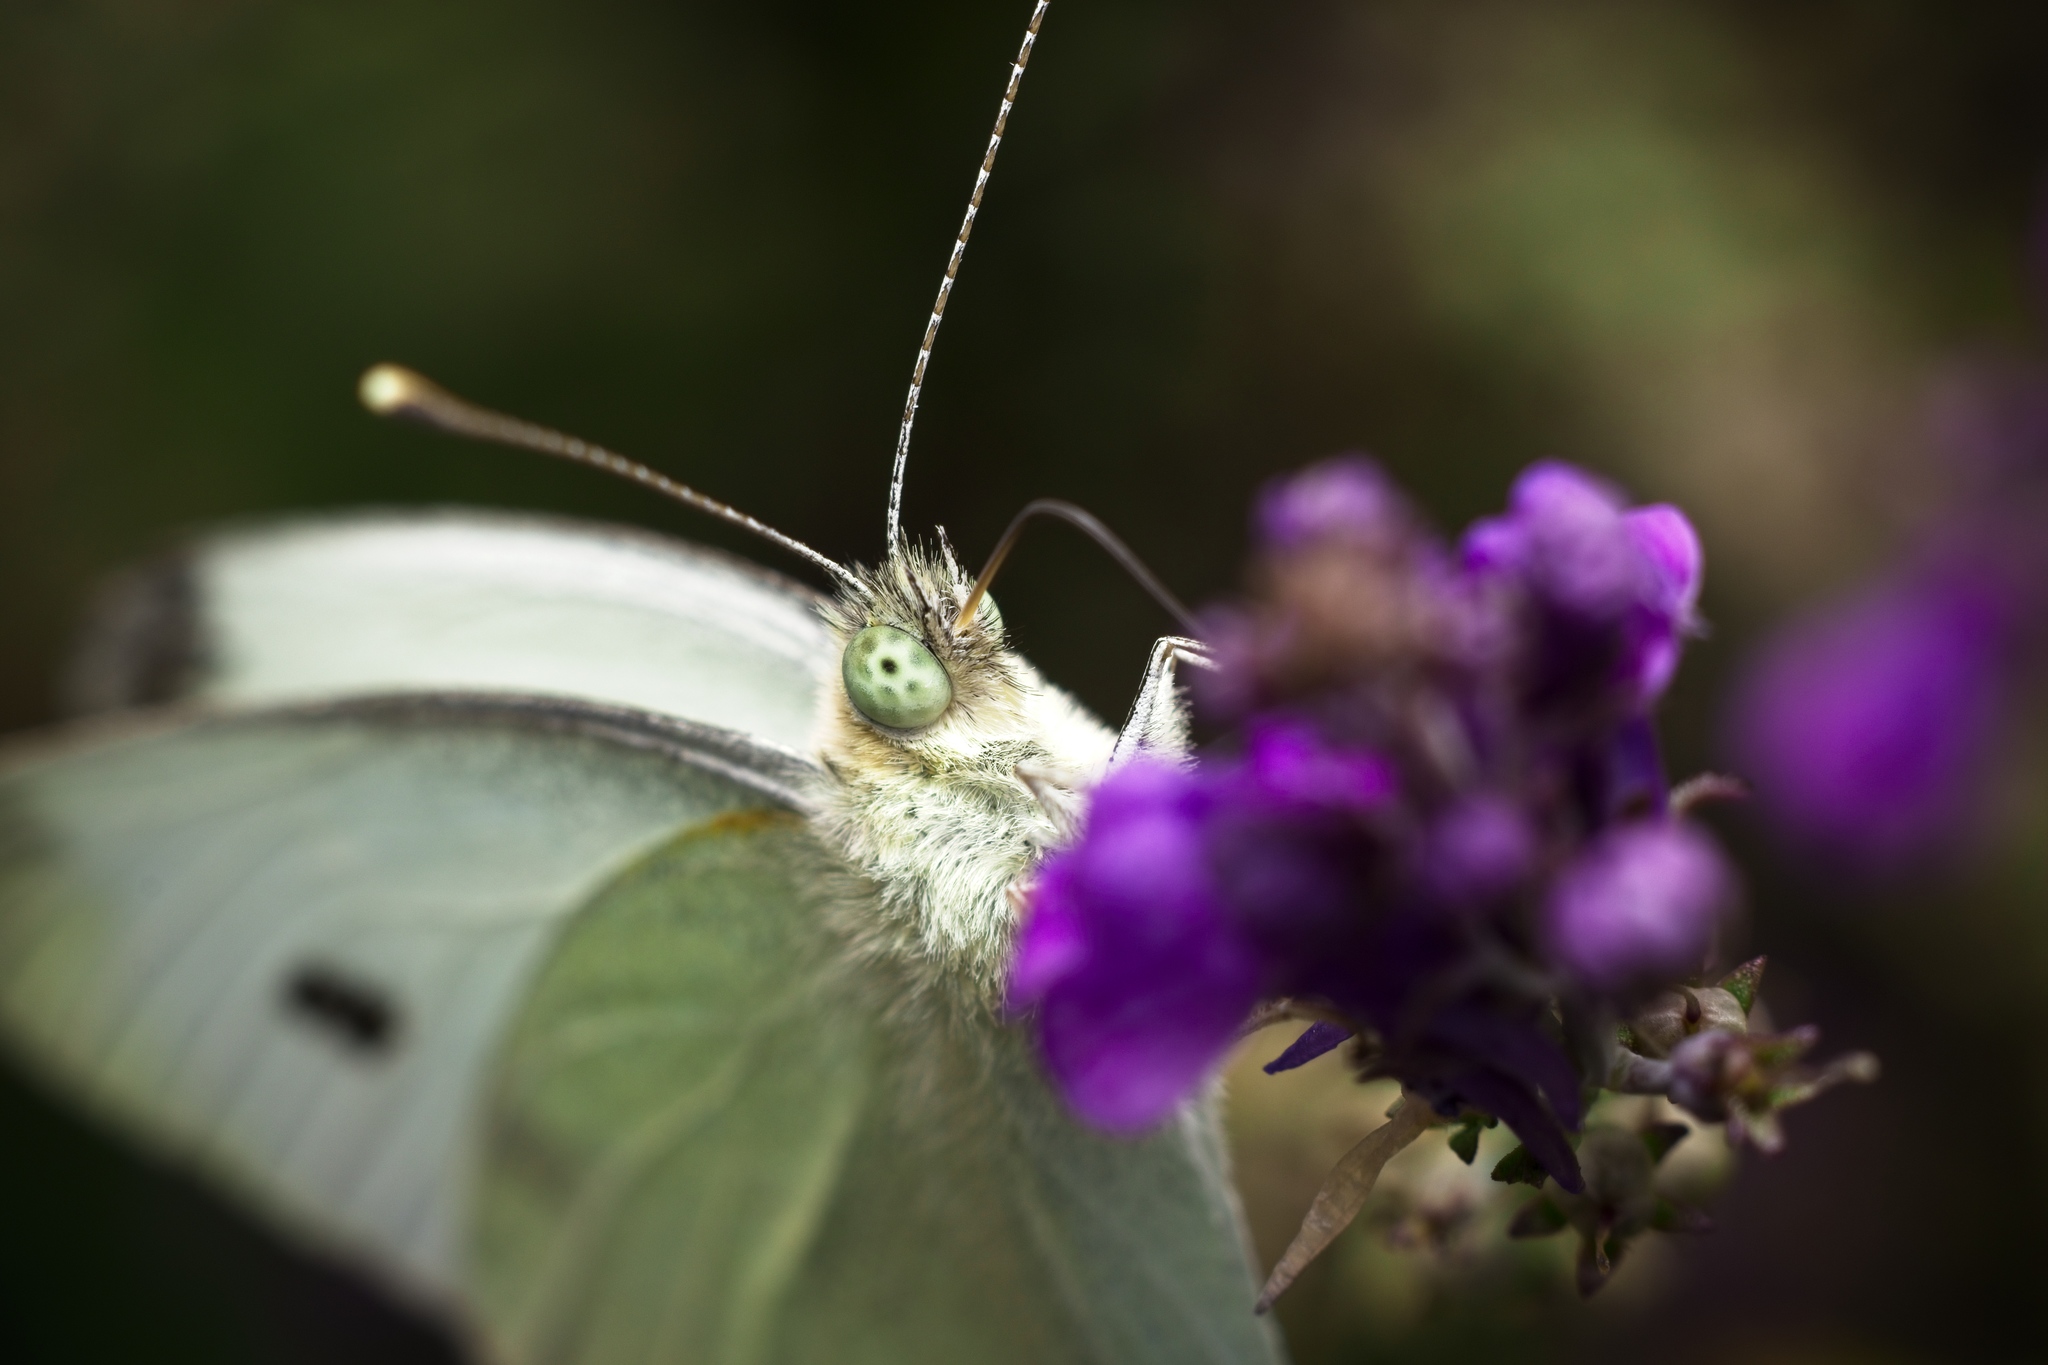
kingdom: Animalia
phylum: Arthropoda
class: Insecta
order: Lepidoptera
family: Pieridae
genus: Pieris
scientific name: Pieris rapae
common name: Small white
